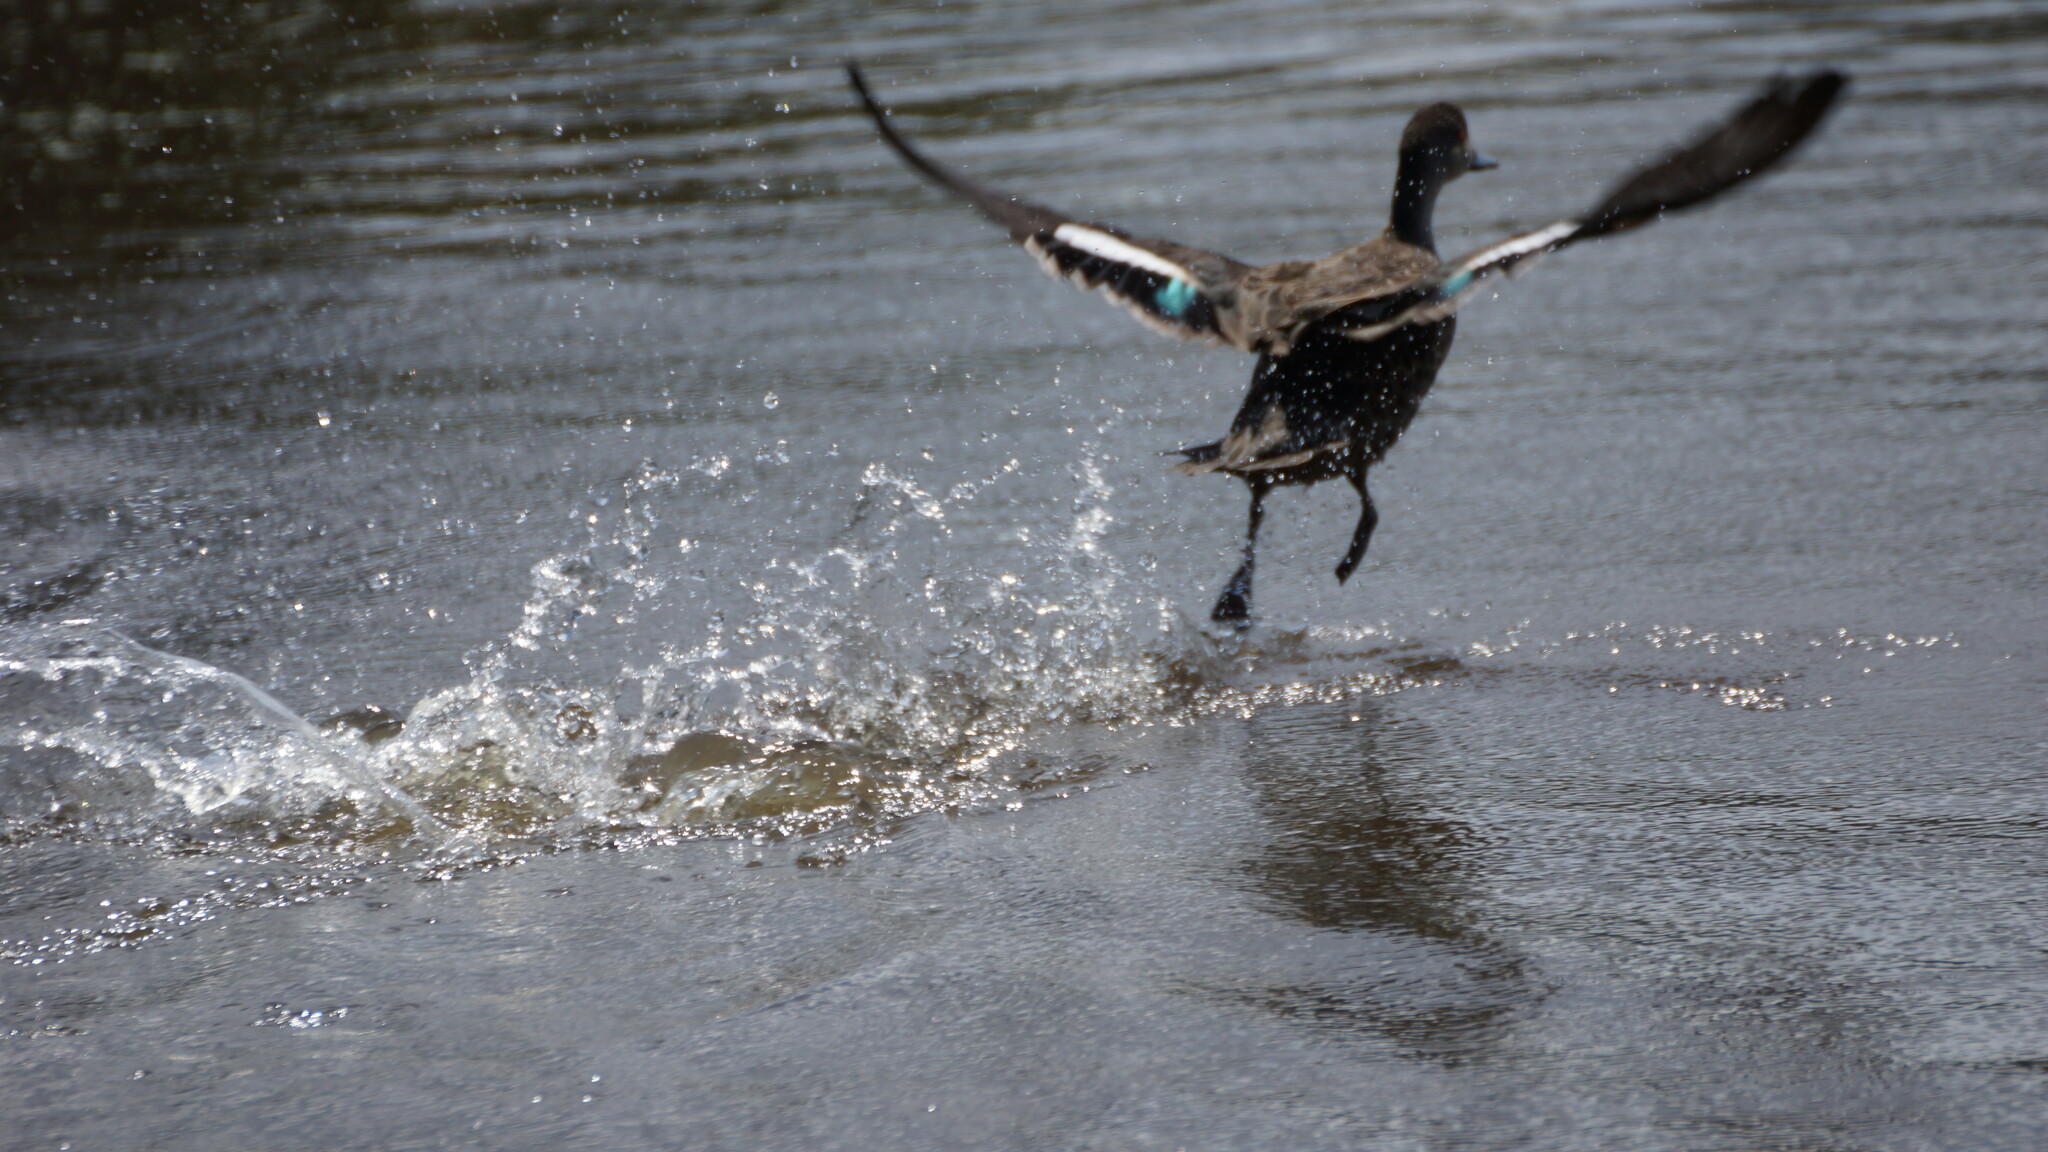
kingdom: Animalia
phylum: Chordata
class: Aves
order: Anseriformes
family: Anatidae
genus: Anas
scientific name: Anas gracilis
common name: Grey teal
